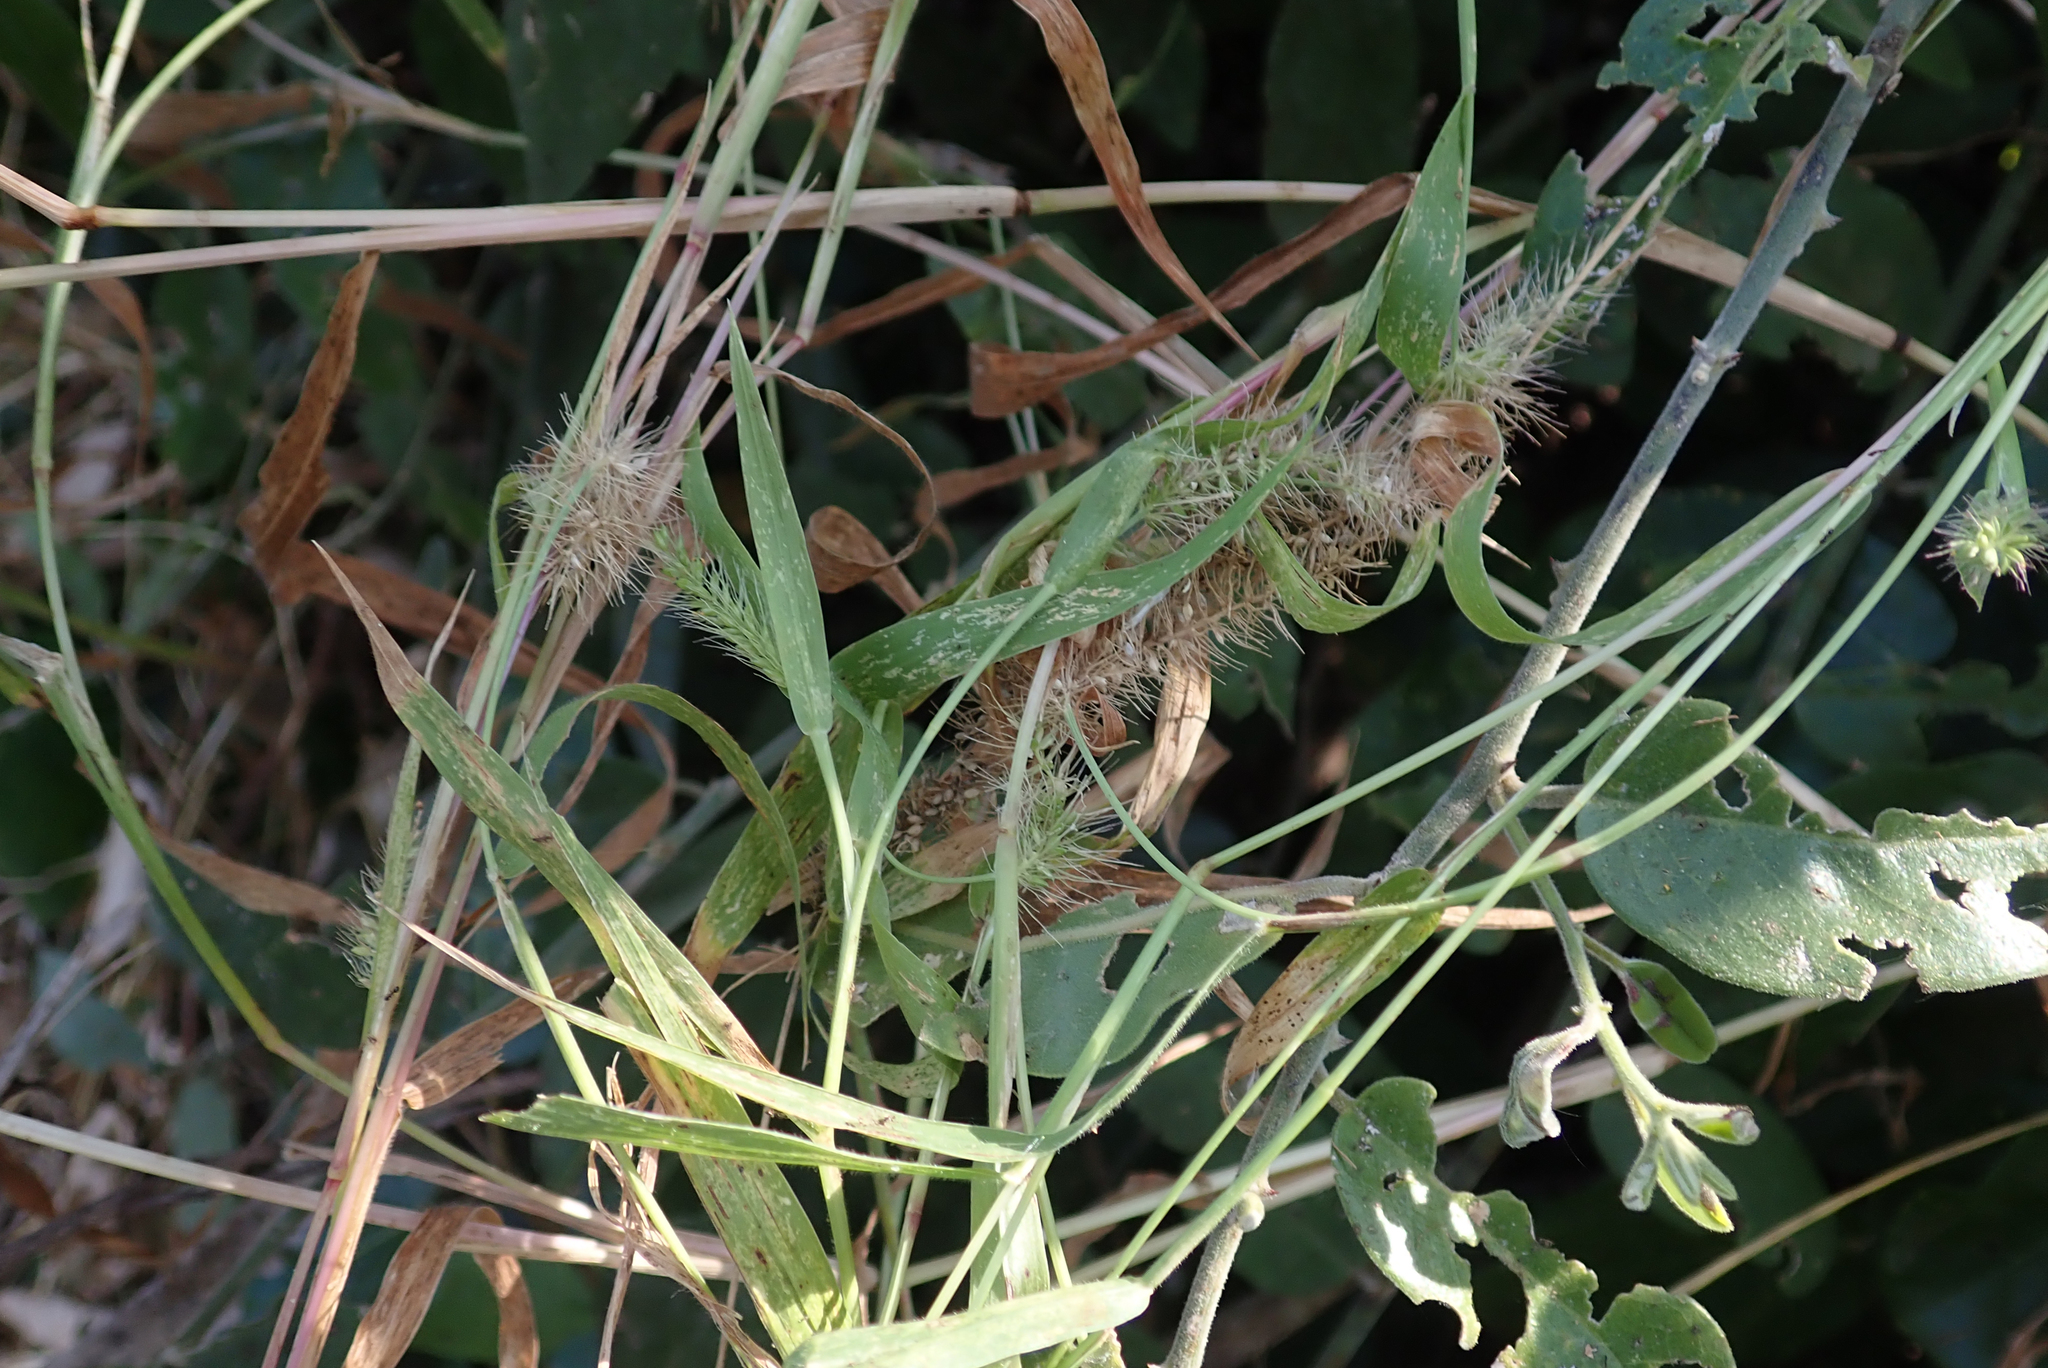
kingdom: Plantae
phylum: Tracheophyta
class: Liliopsida
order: Poales
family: Poaceae
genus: Setaria
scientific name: Setaria verticillata
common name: Hooked bristlegrass
